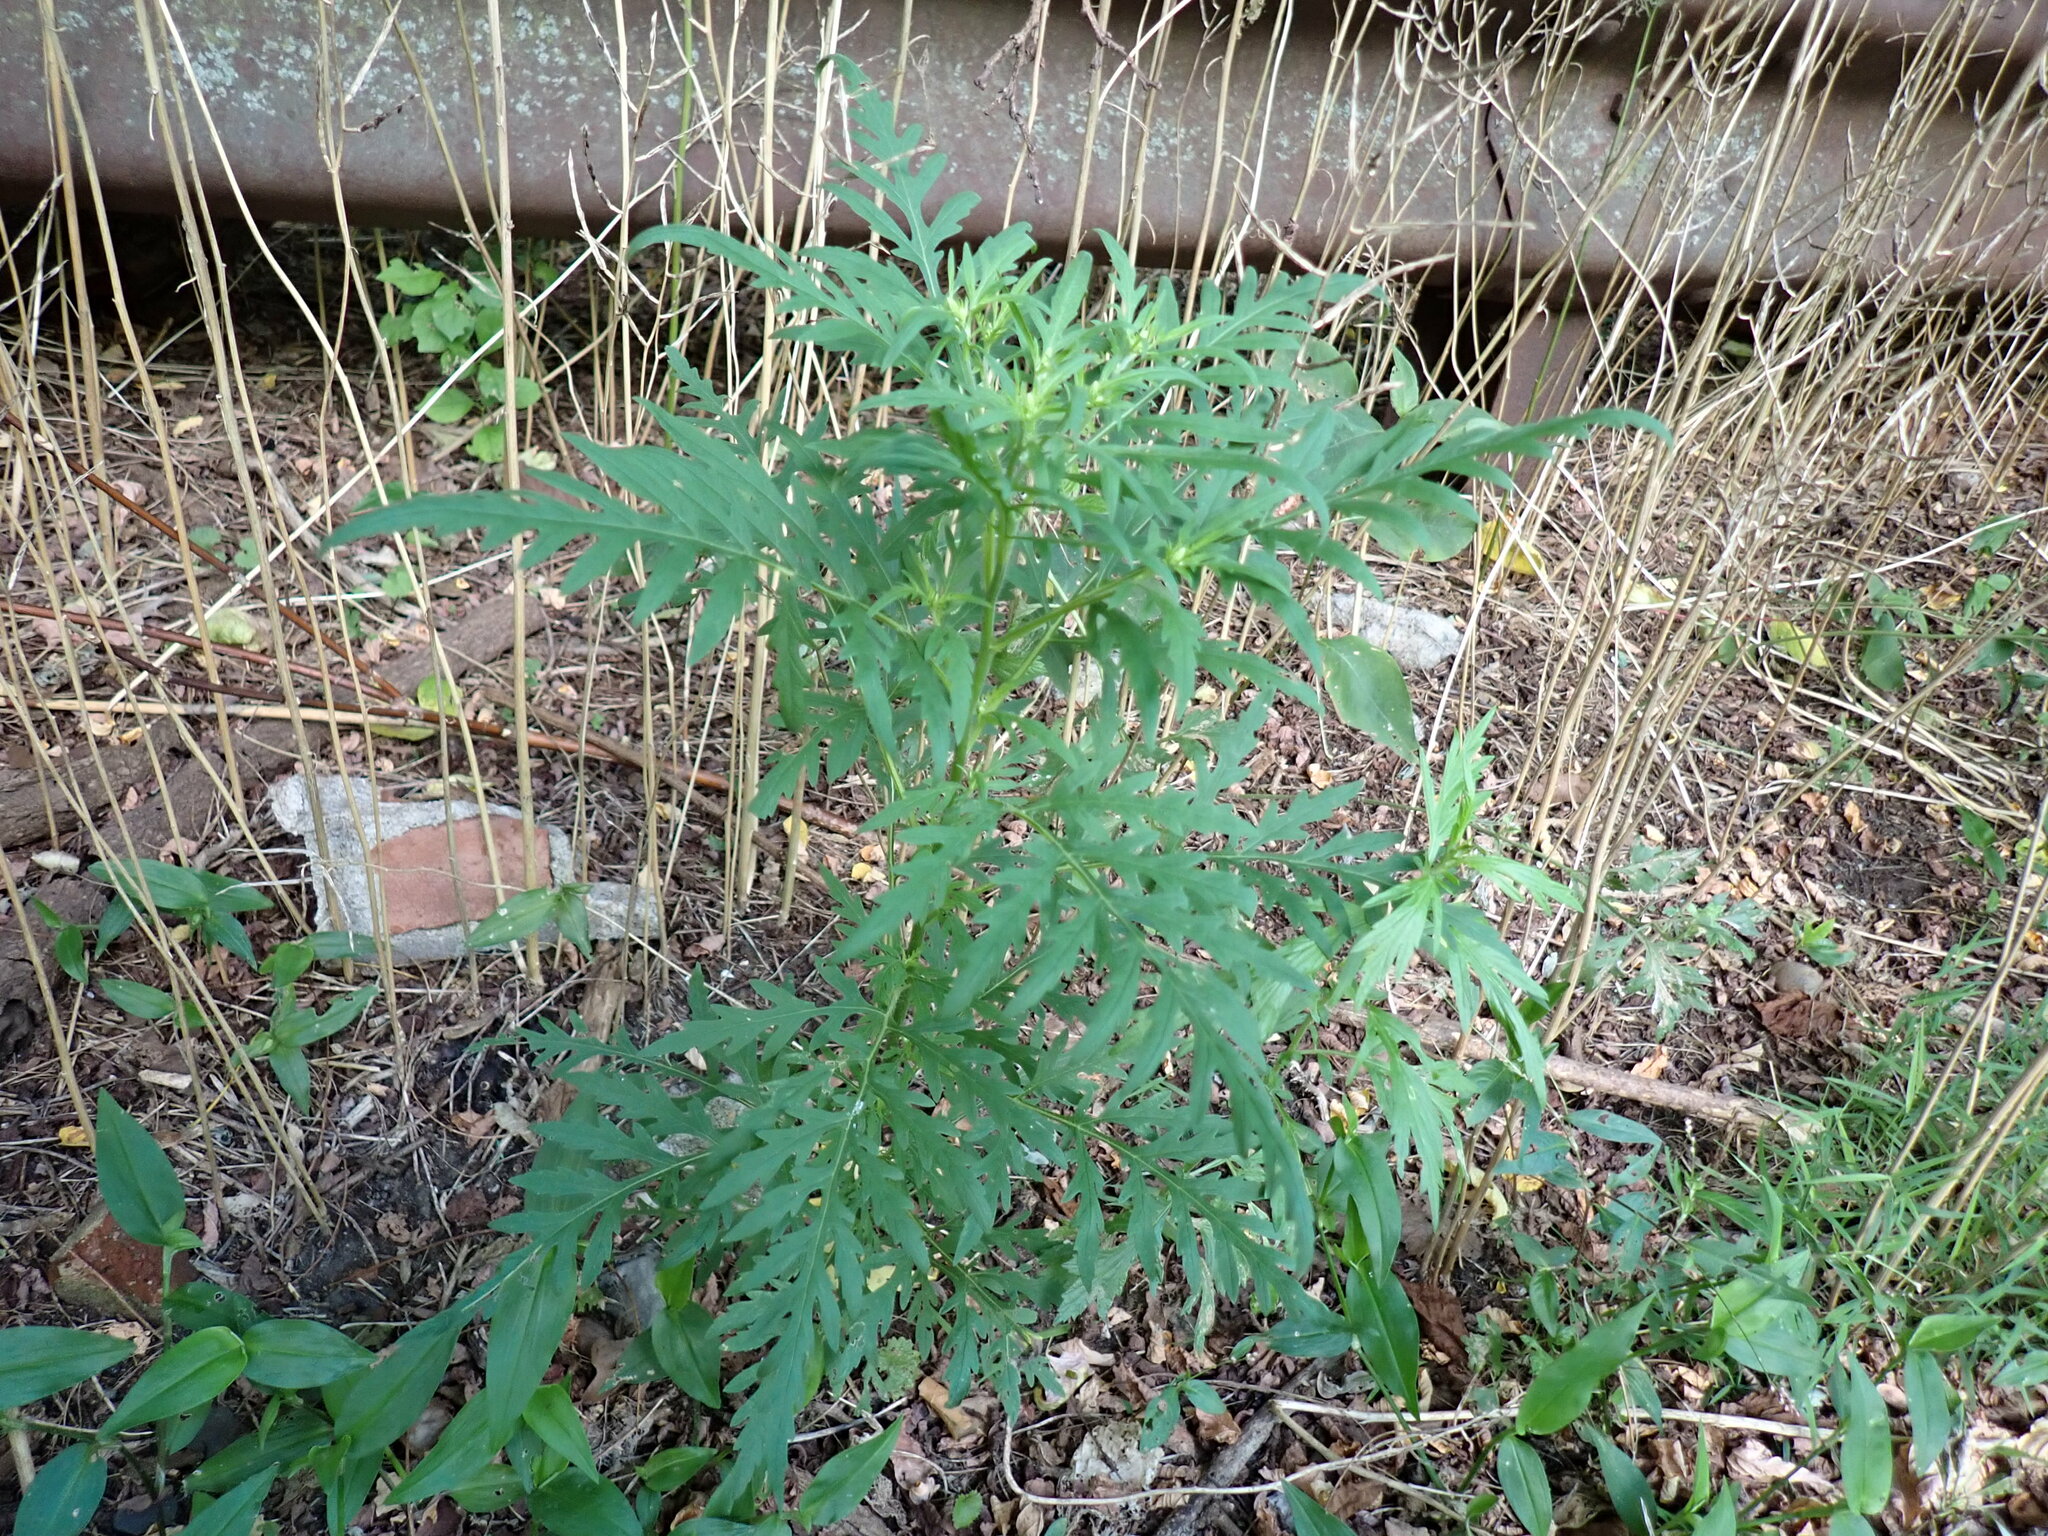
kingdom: Plantae
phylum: Tracheophyta
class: Magnoliopsida
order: Asterales
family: Asteraceae
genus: Ambrosia
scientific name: Ambrosia artemisiifolia
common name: Annual ragweed
